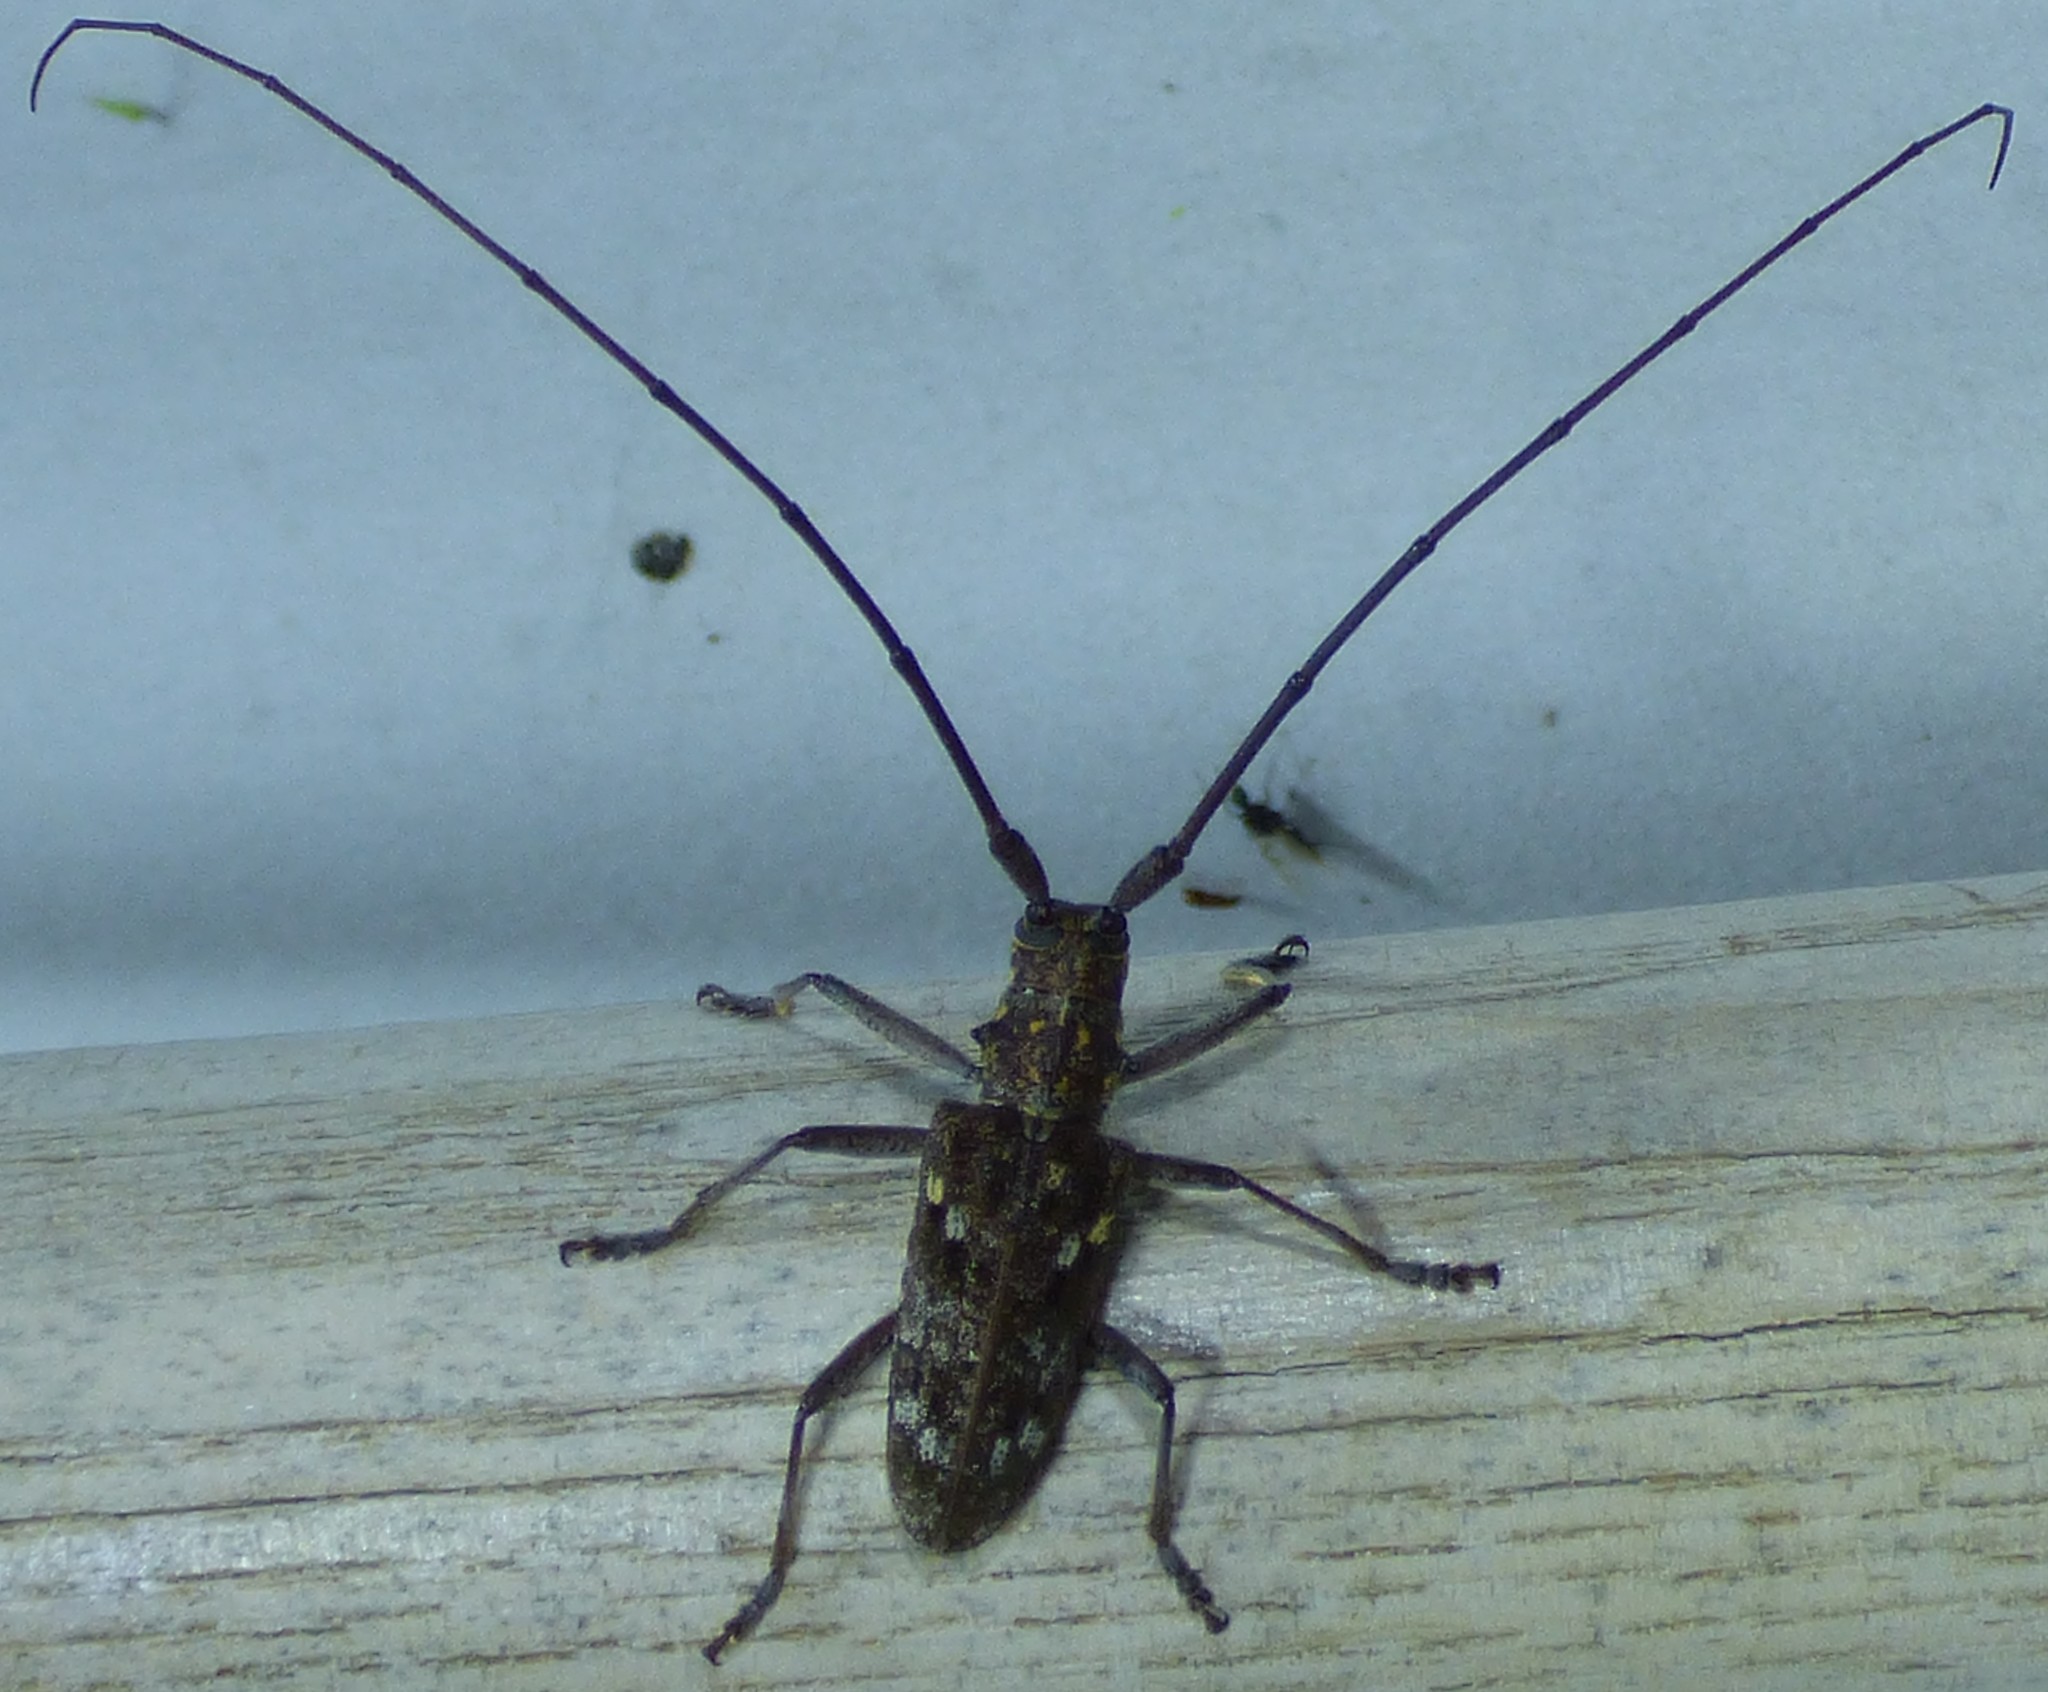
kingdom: Animalia
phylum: Arthropoda
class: Insecta
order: Coleoptera
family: Cerambycidae
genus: Monochamus
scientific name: Monochamus carolinensis
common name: Carolina pine sawyer
